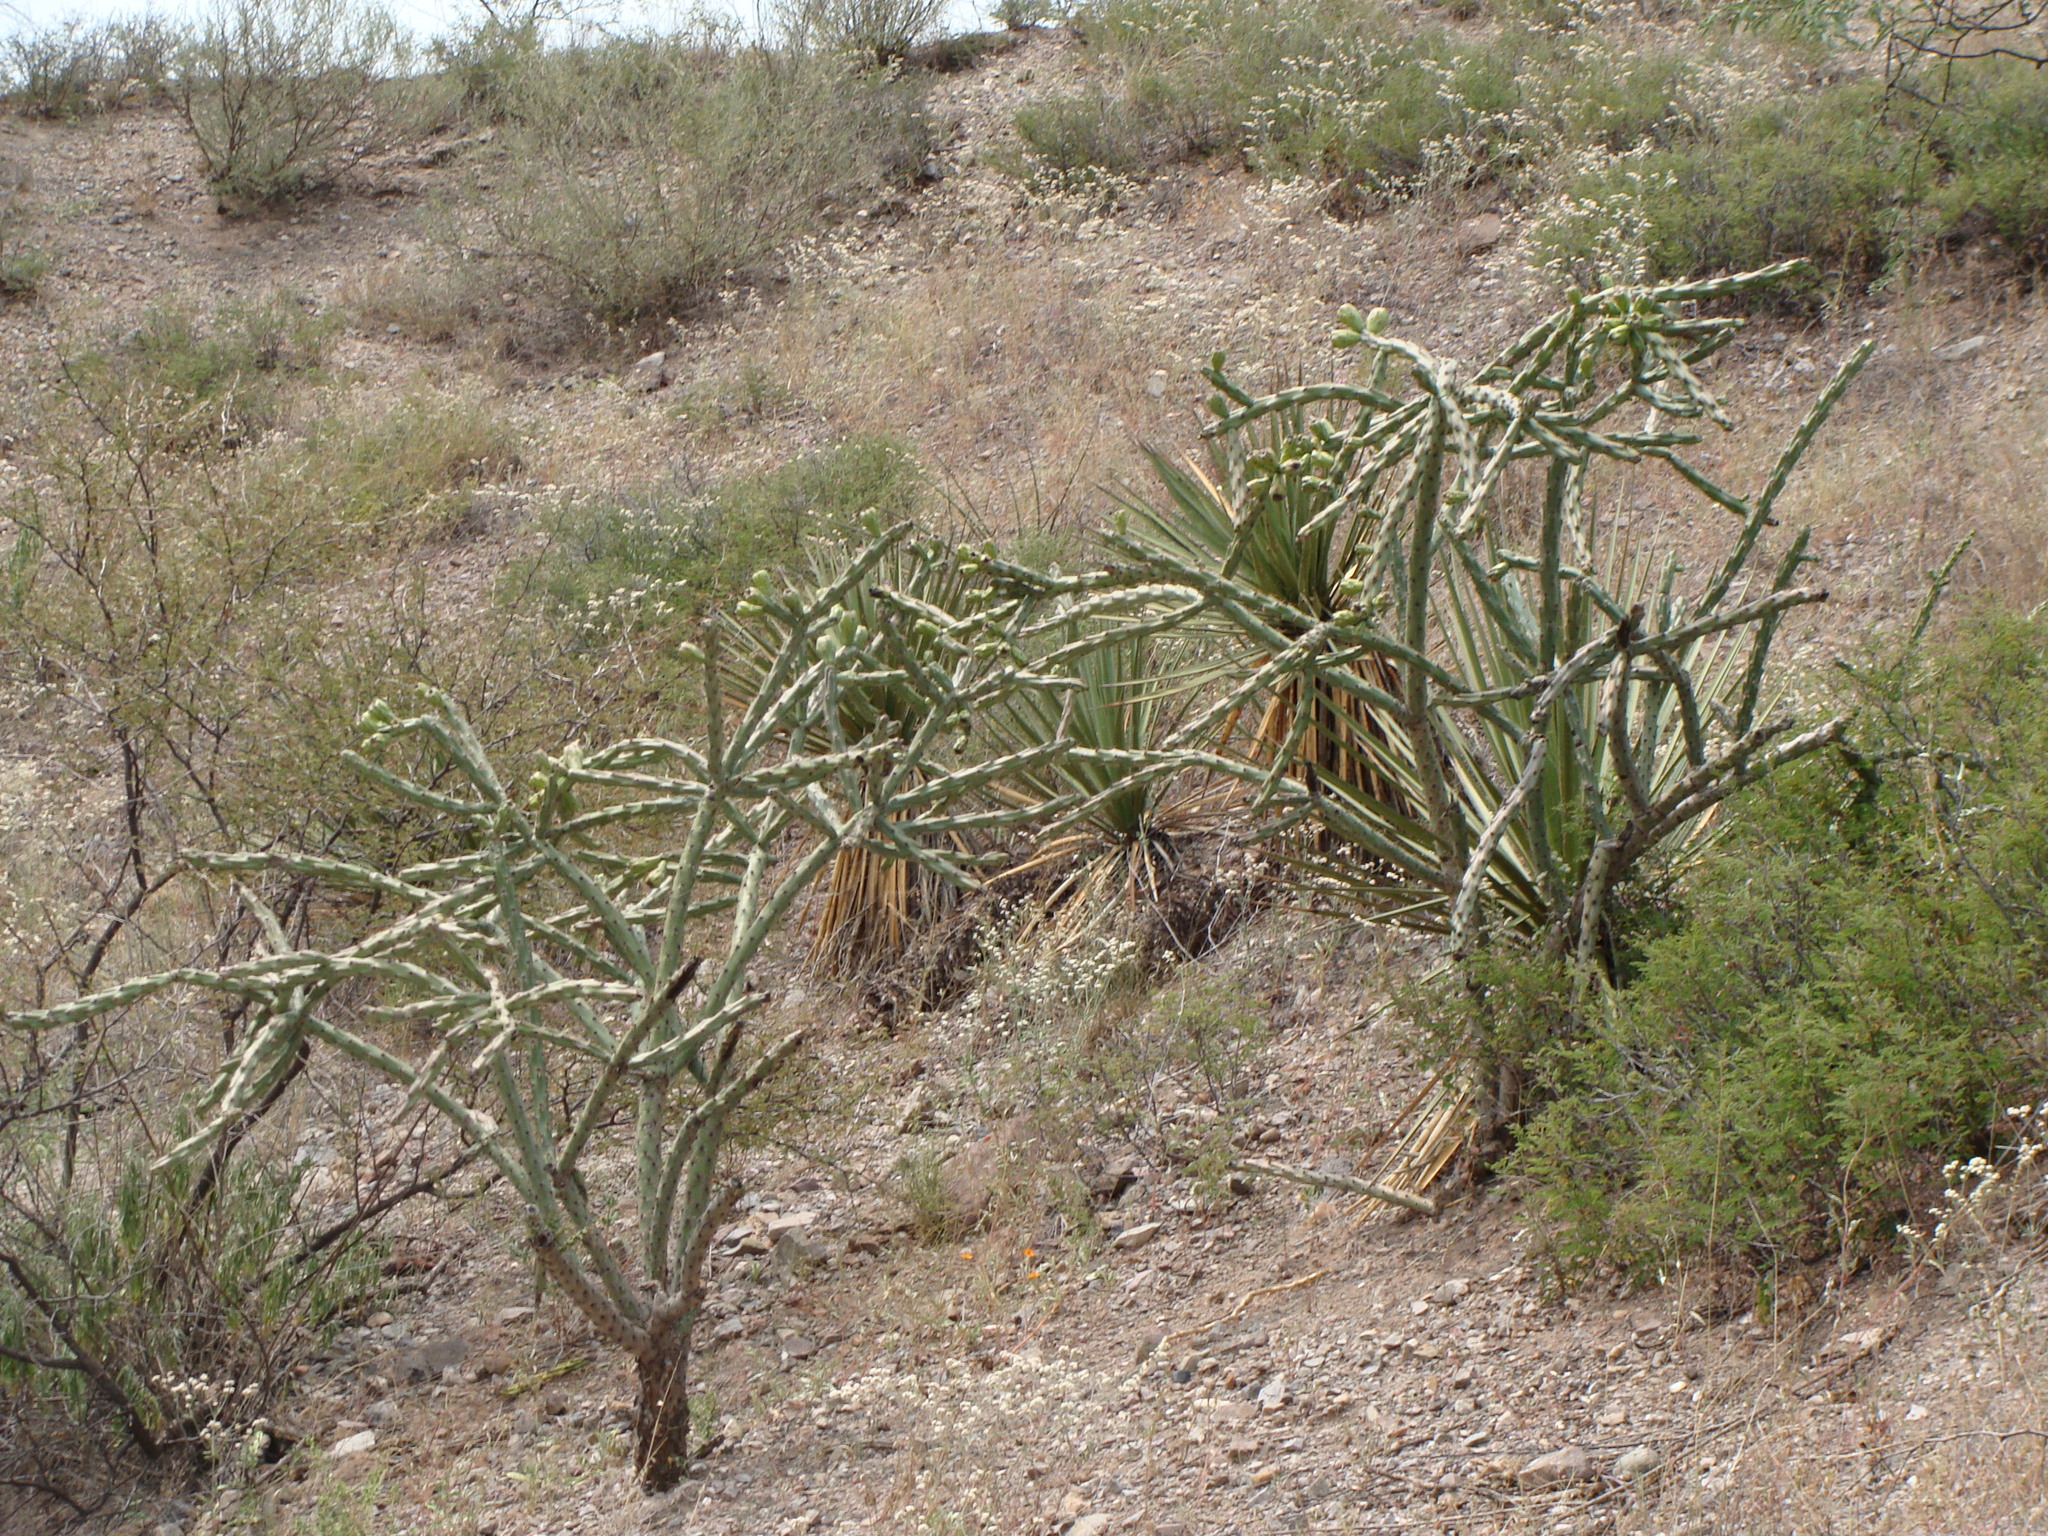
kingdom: Plantae
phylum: Tracheophyta
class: Magnoliopsida
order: Caryophyllales
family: Cactaceae
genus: Cylindropuntia
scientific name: Cylindropuntia thurberi
